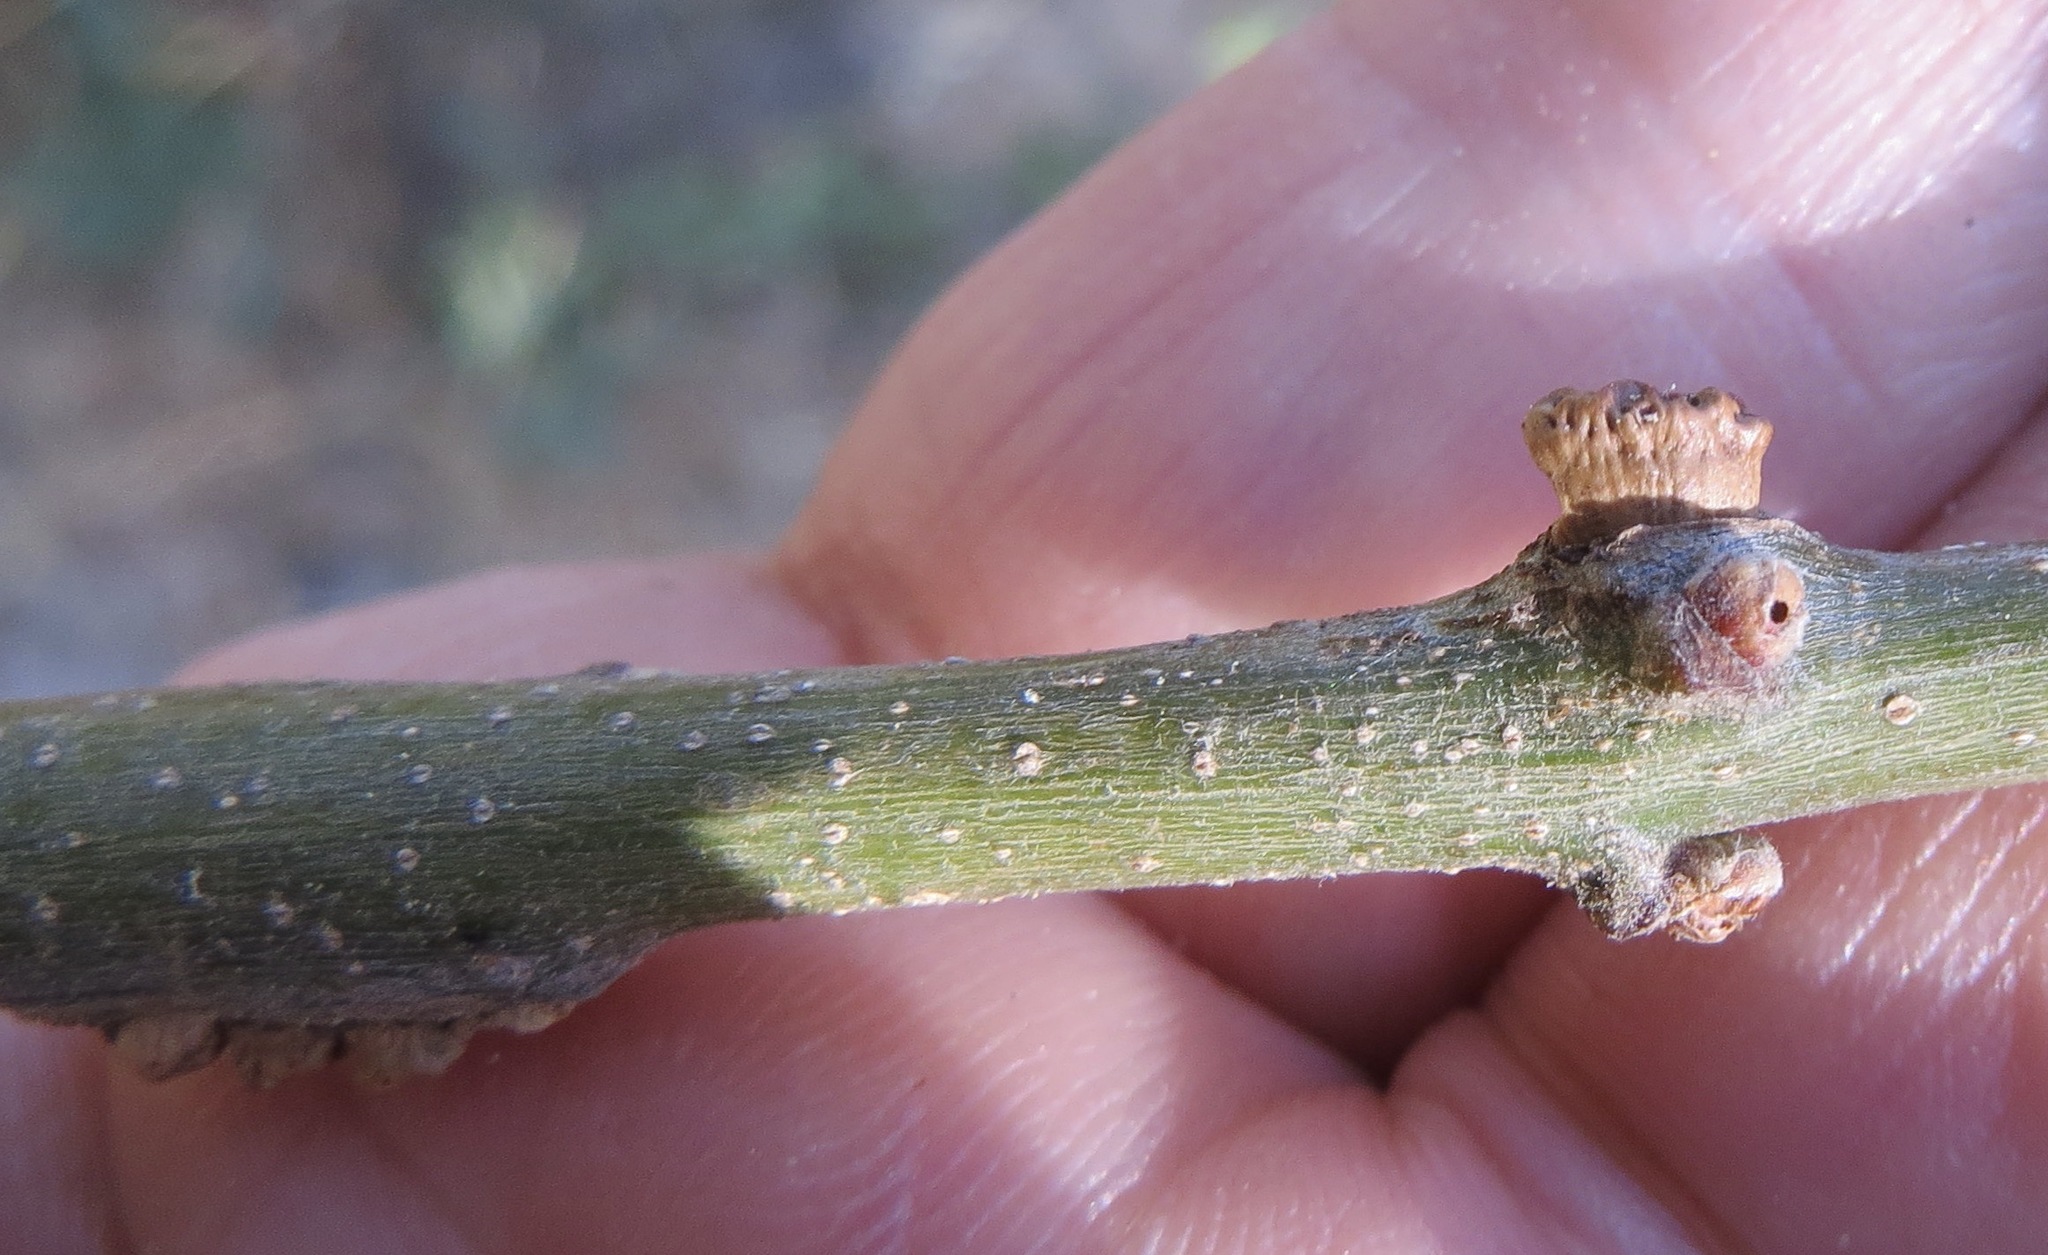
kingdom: Animalia
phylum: Arthropoda
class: Insecta
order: Hymenoptera
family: Cynipidae
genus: Disholcaspis
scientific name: Disholcaspis
